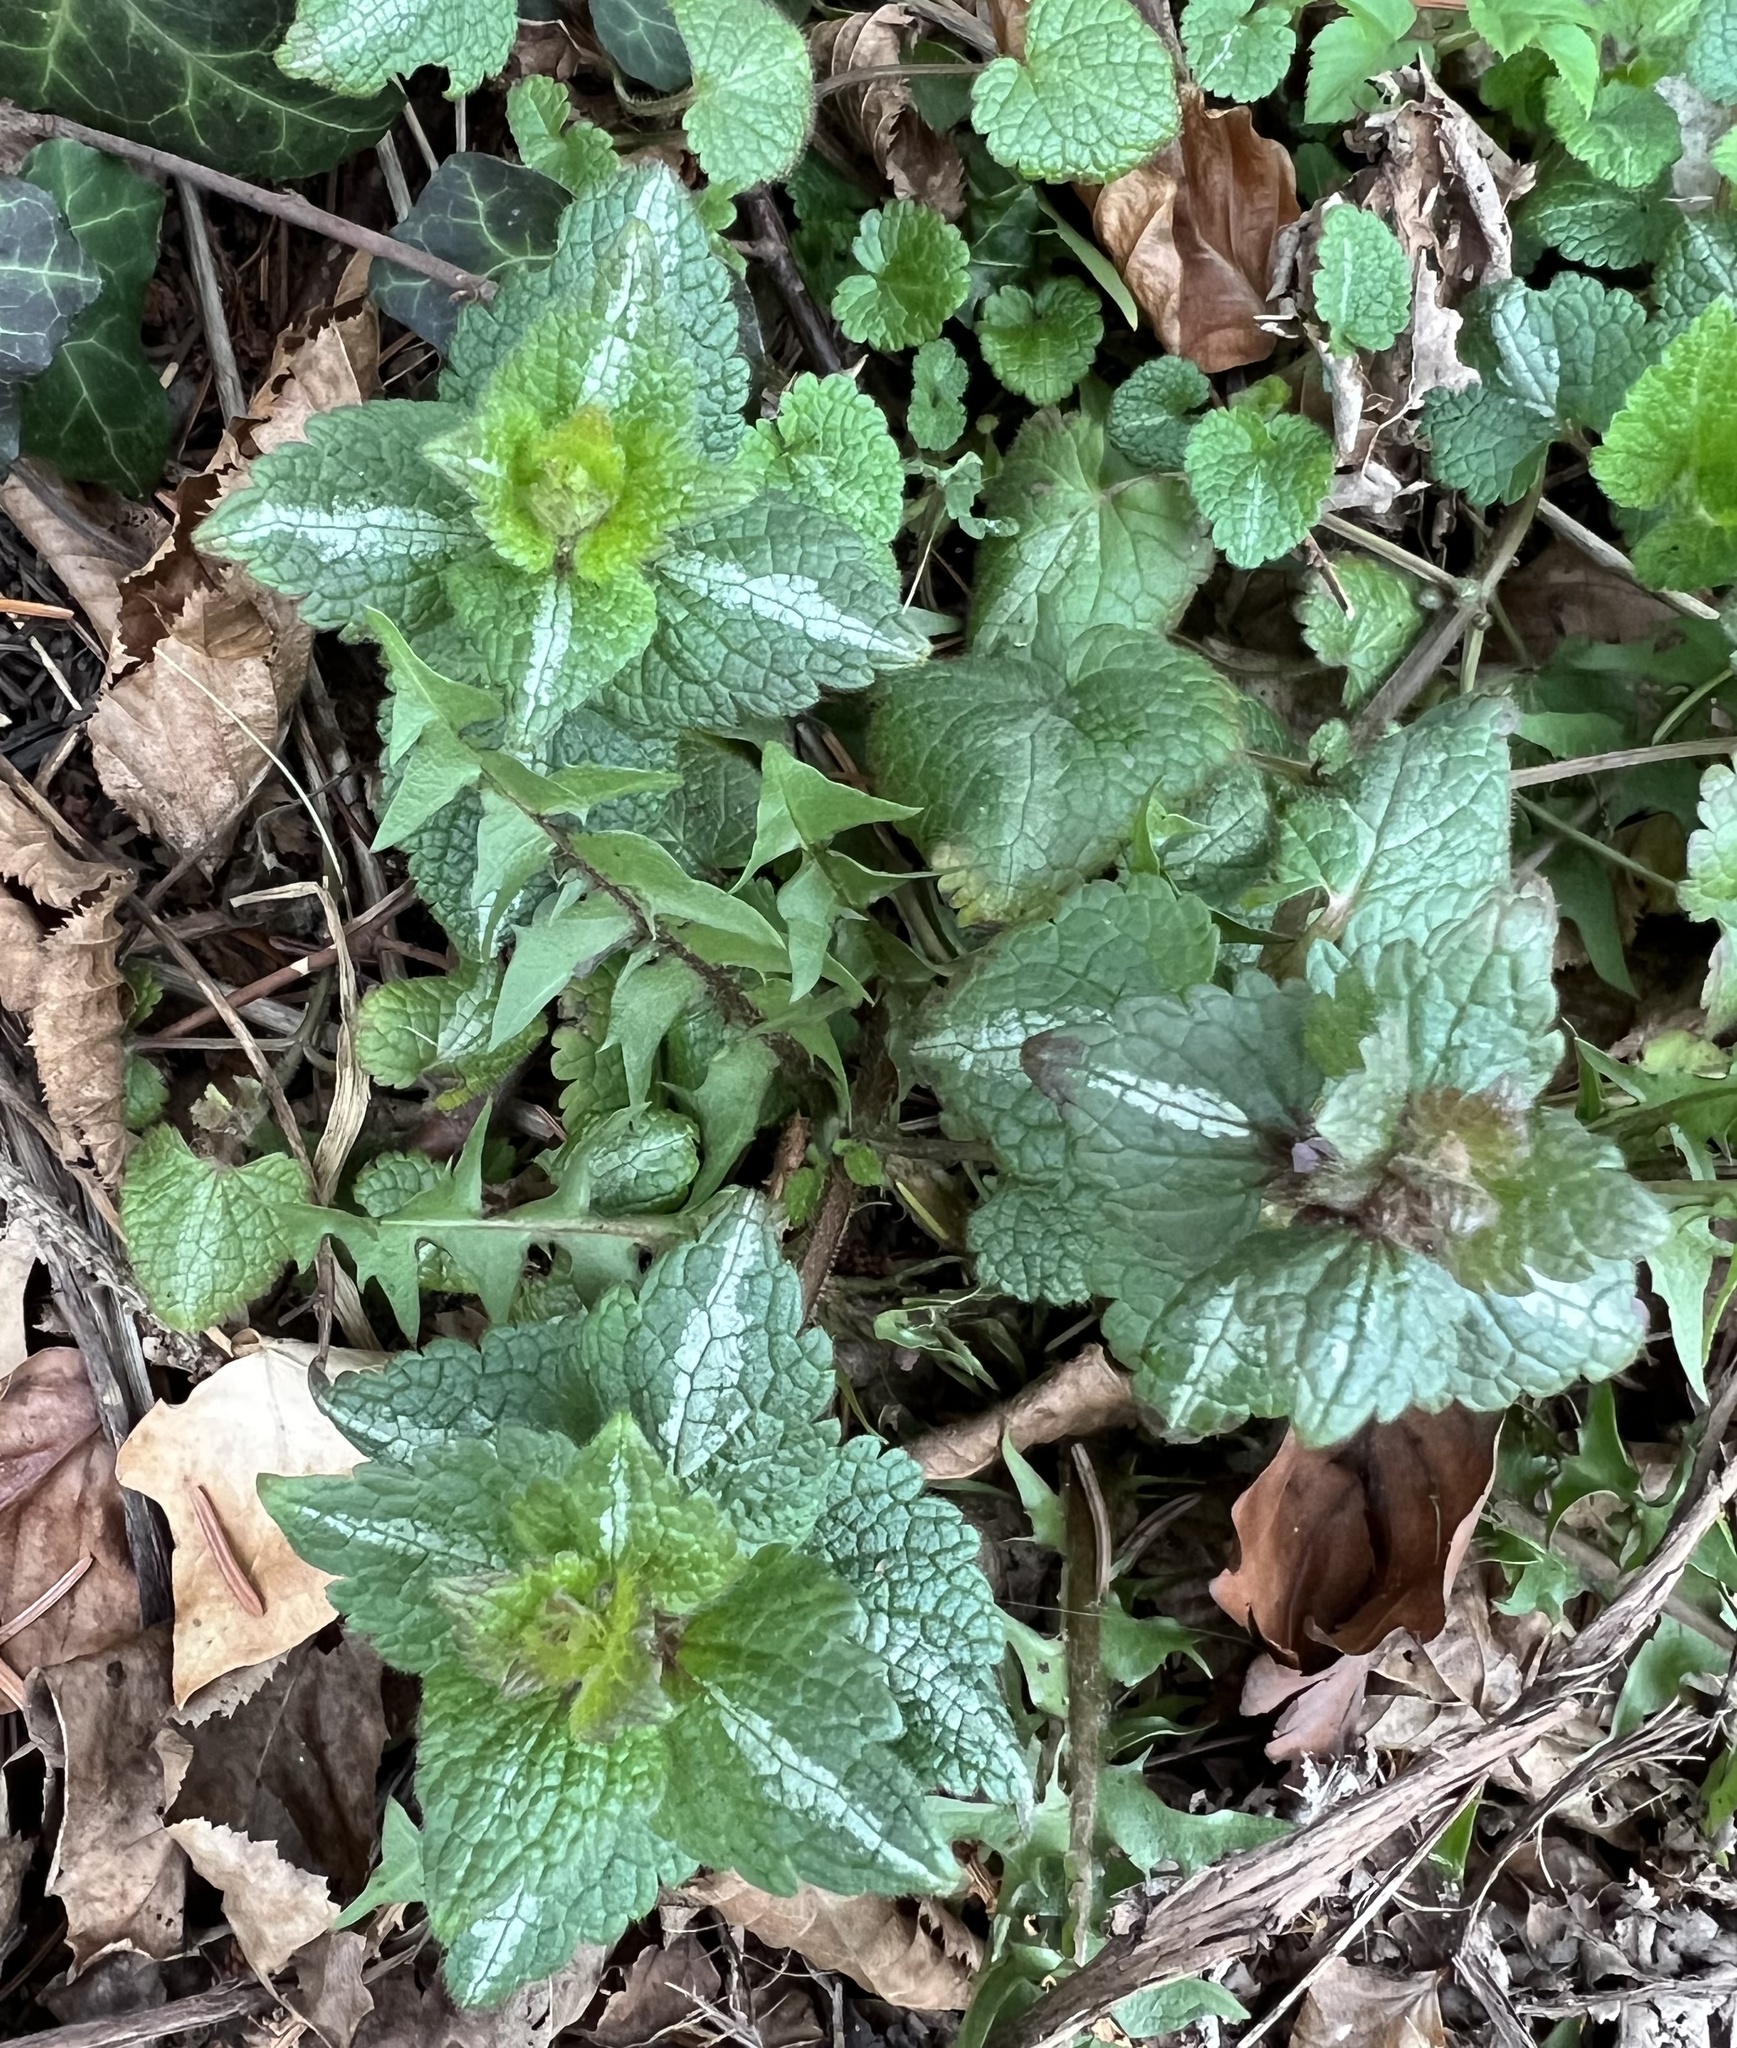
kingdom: Plantae
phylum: Tracheophyta
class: Magnoliopsida
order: Lamiales
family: Lamiaceae
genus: Lamium
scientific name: Lamium maculatum
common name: Spotted dead-nettle
